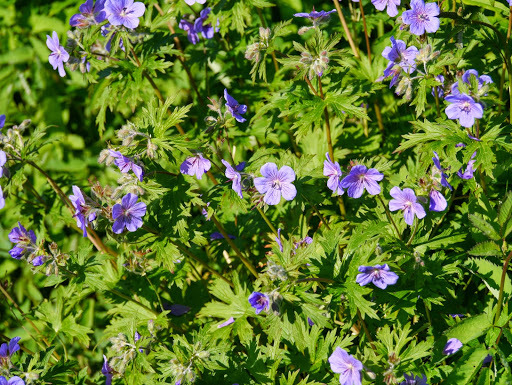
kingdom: Plantae
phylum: Tracheophyta
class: Magnoliopsida
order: Geraniales
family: Geraniaceae
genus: Geranium
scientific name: Geranium erianthum
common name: Northern crane's-bill
